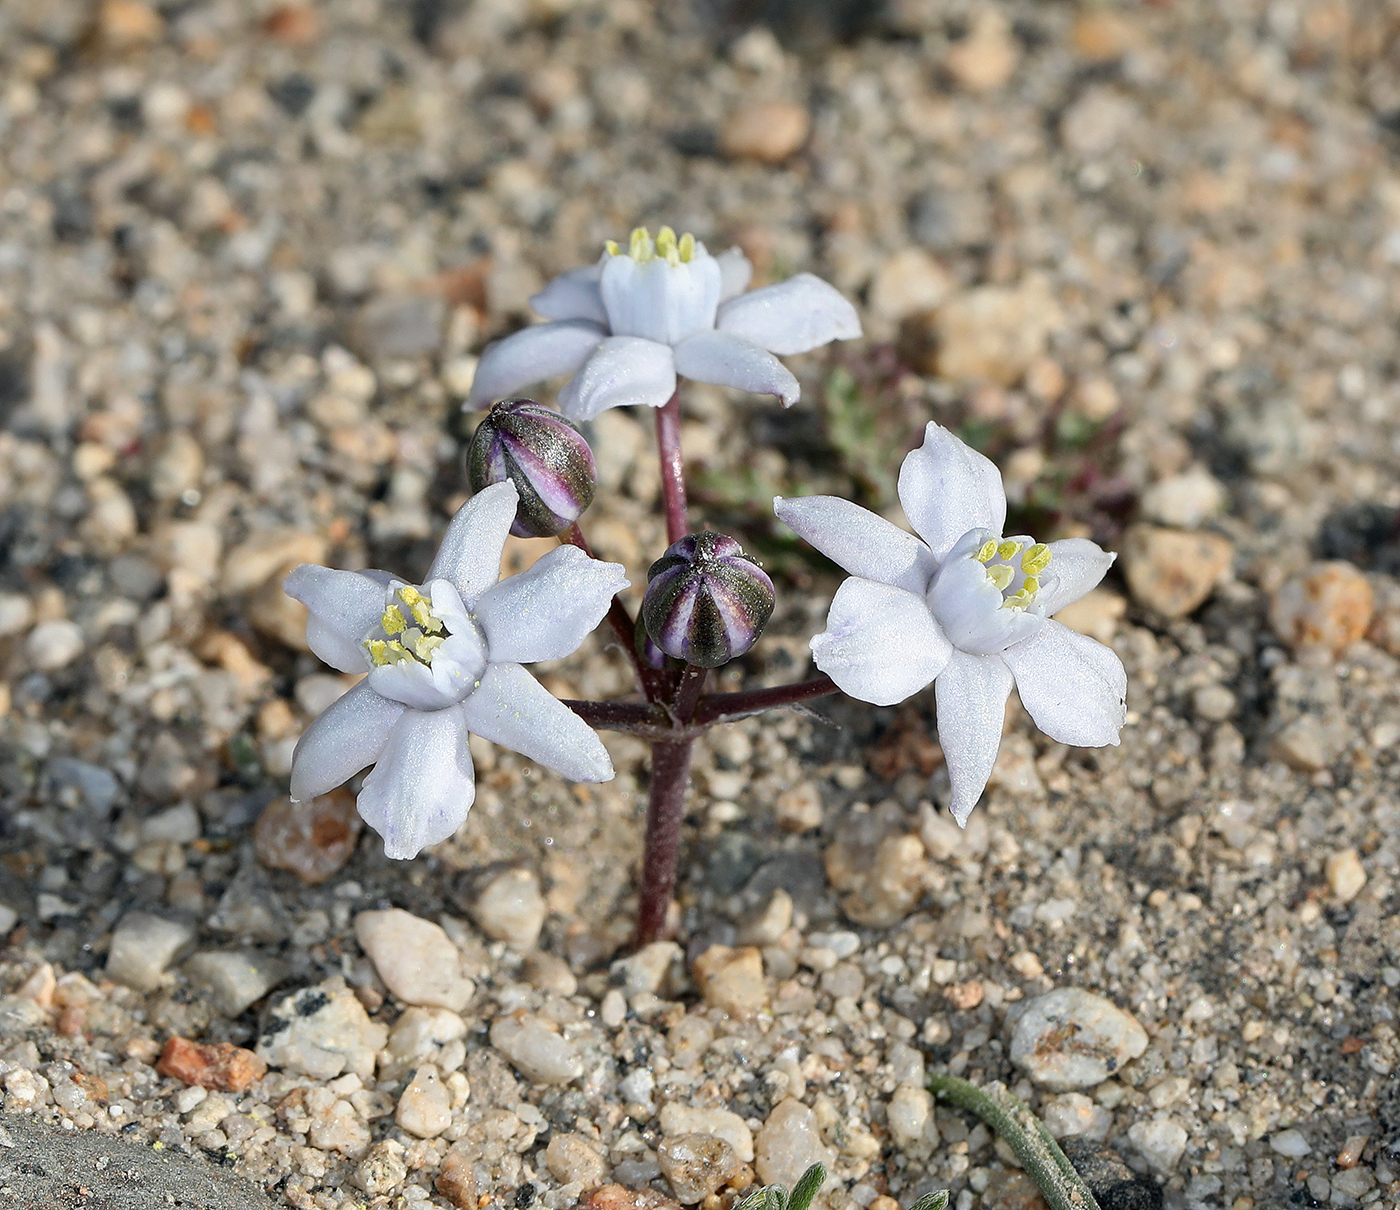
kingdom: Plantae
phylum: Tracheophyta
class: Liliopsida
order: Asparagales
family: Asparagaceae
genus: Muilla
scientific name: Muilla coronata
